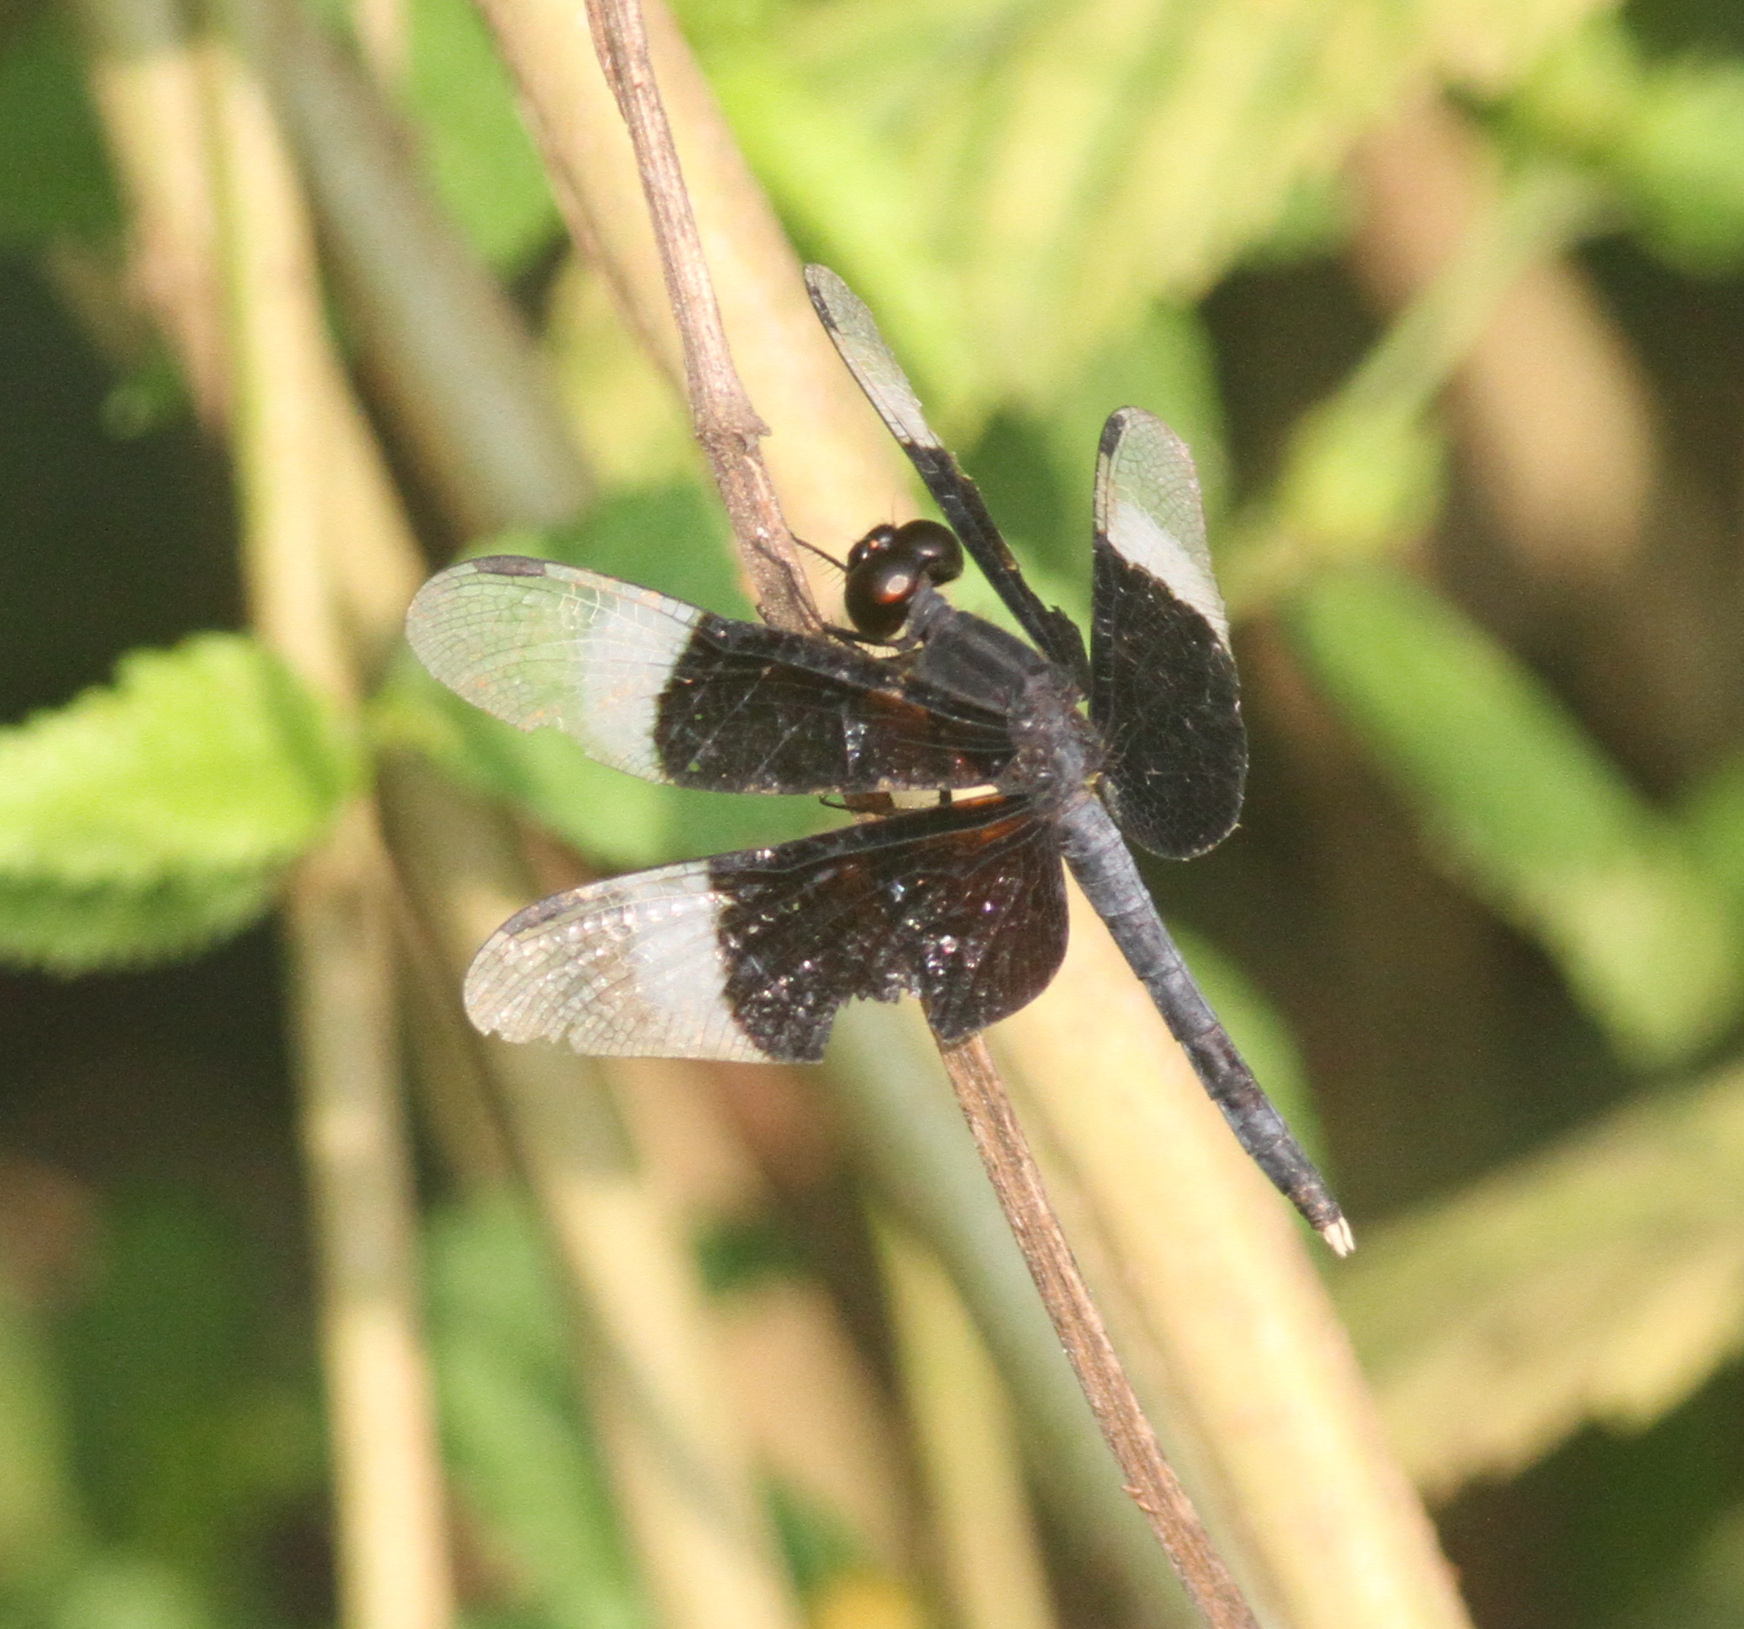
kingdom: Animalia
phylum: Arthropoda
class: Insecta
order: Odonata
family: Libellulidae
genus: Neurothemis
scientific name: Neurothemis tullia
